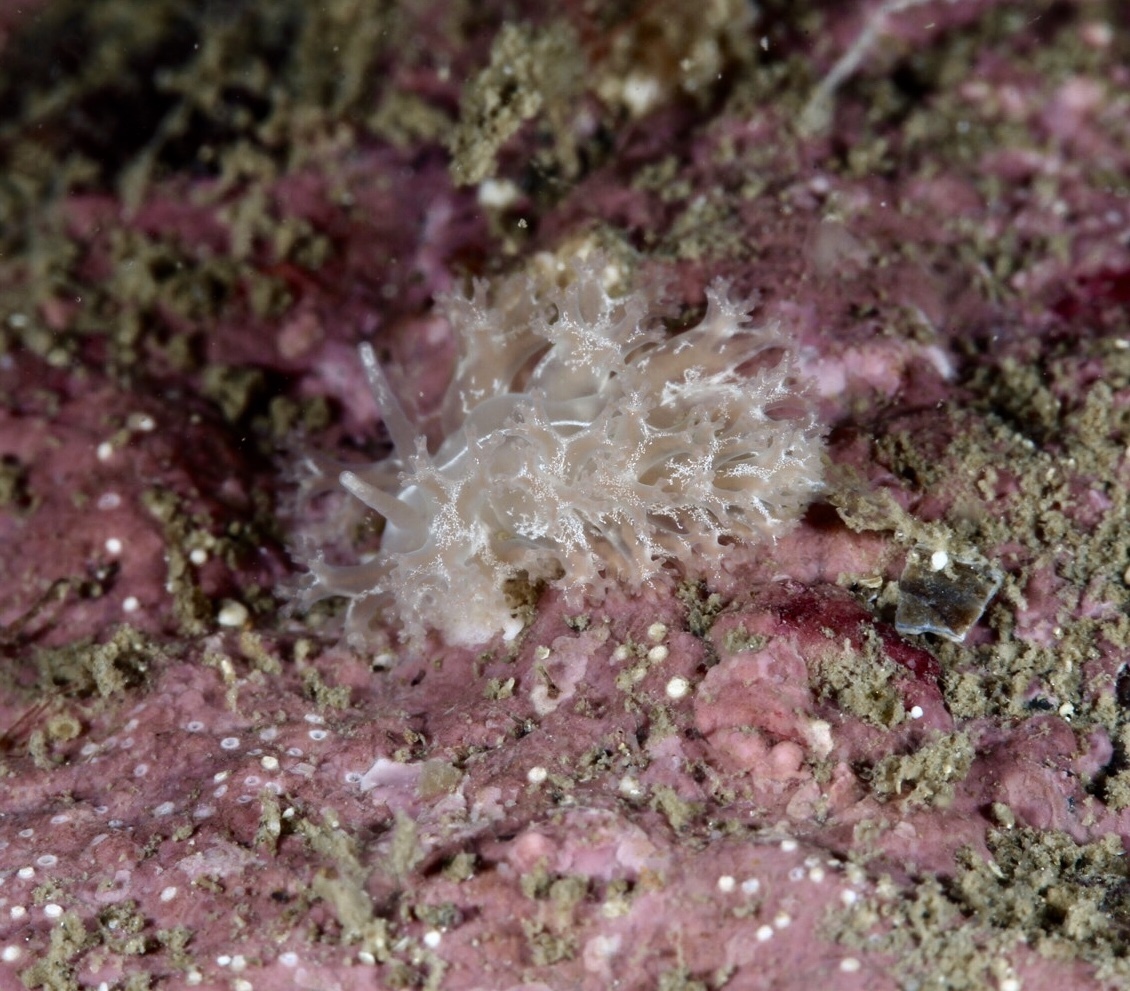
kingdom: Animalia
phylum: Mollusca
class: Gastropoda
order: Nudibranchia
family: Heroidae
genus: Hero
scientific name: Hero formosa
